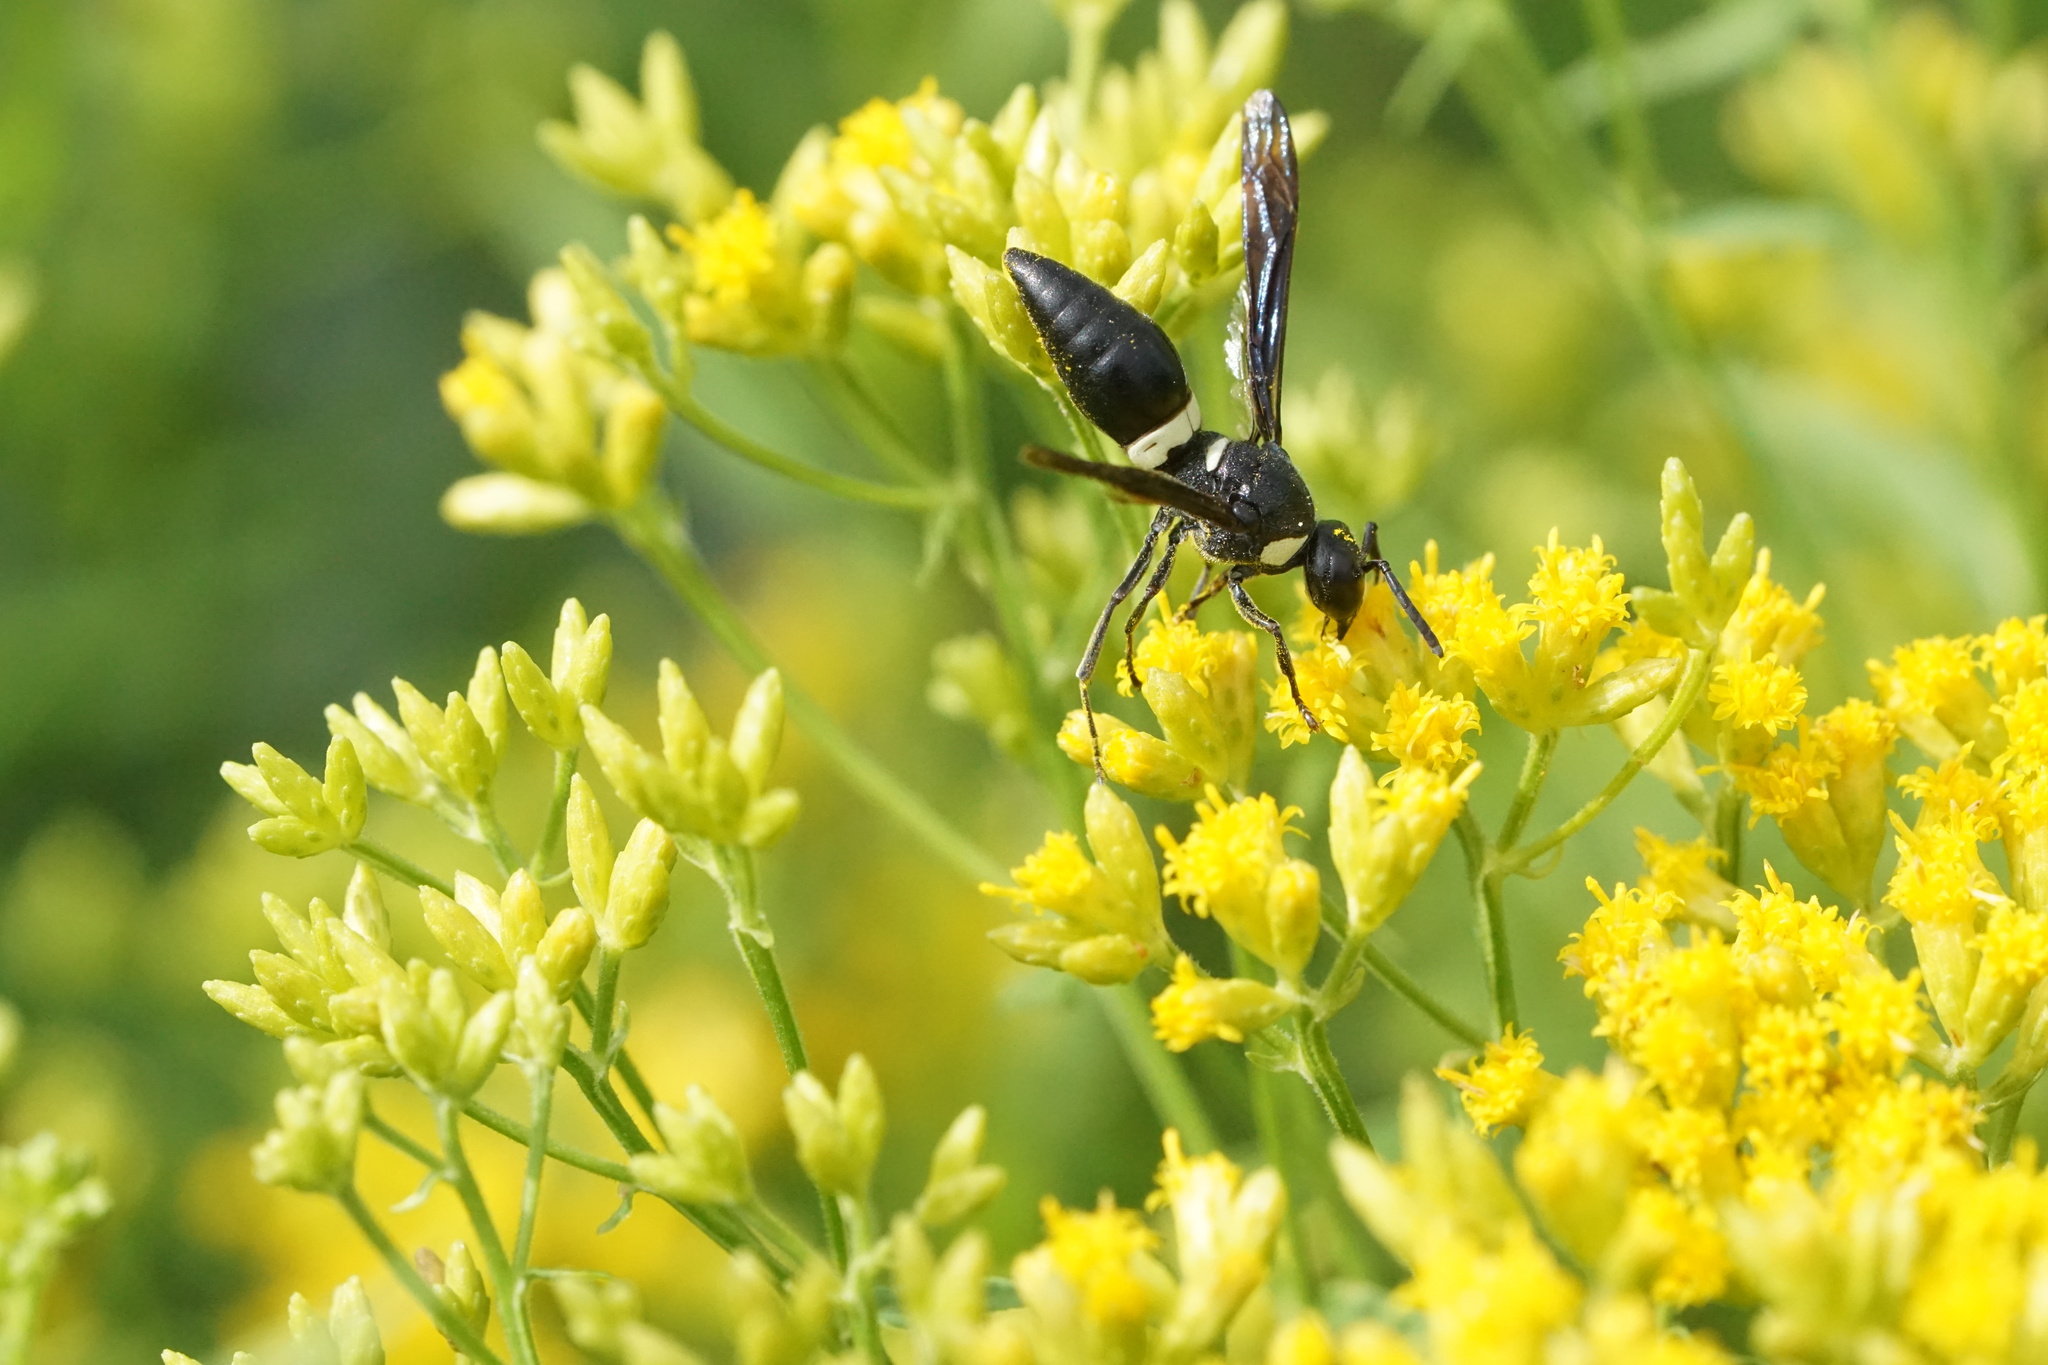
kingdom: Animalia
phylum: Arthropoda
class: Insecta
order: Hymenoptera
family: Eumenidae
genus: Monobia
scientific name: Monobia quadridens
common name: Four-toothed mason wasp
